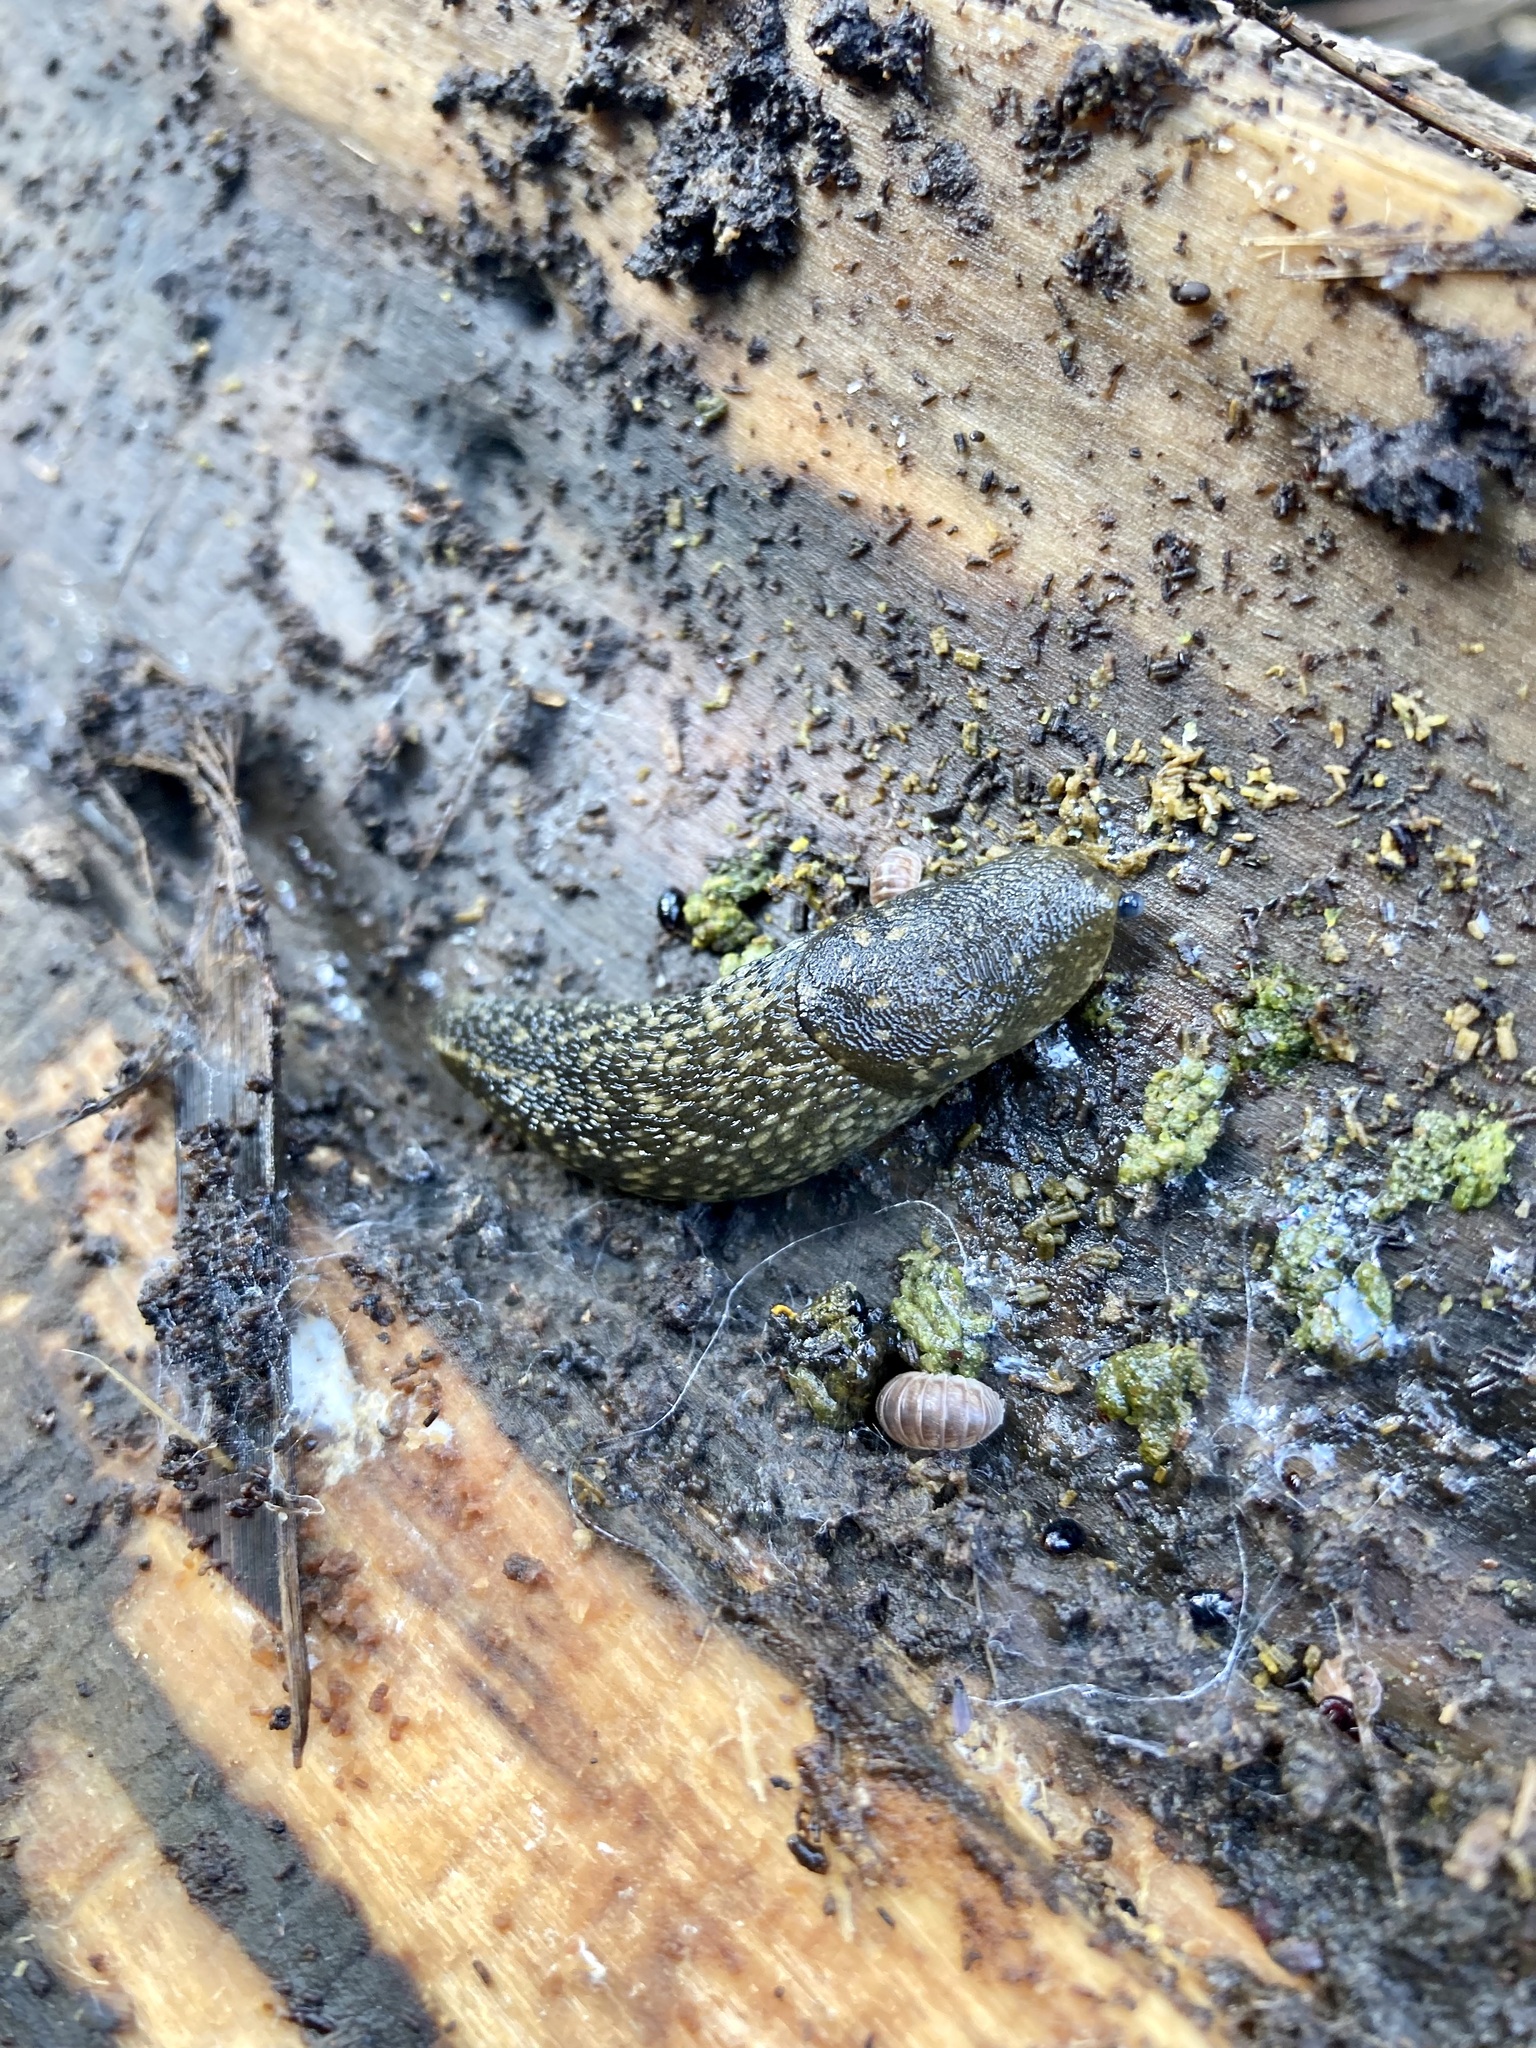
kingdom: Animalia
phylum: Mollusca
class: Gastropoda
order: Stylommatophora
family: Limacidae
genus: Limacus
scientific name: Limacus flavus
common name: Yellow gardenslug
